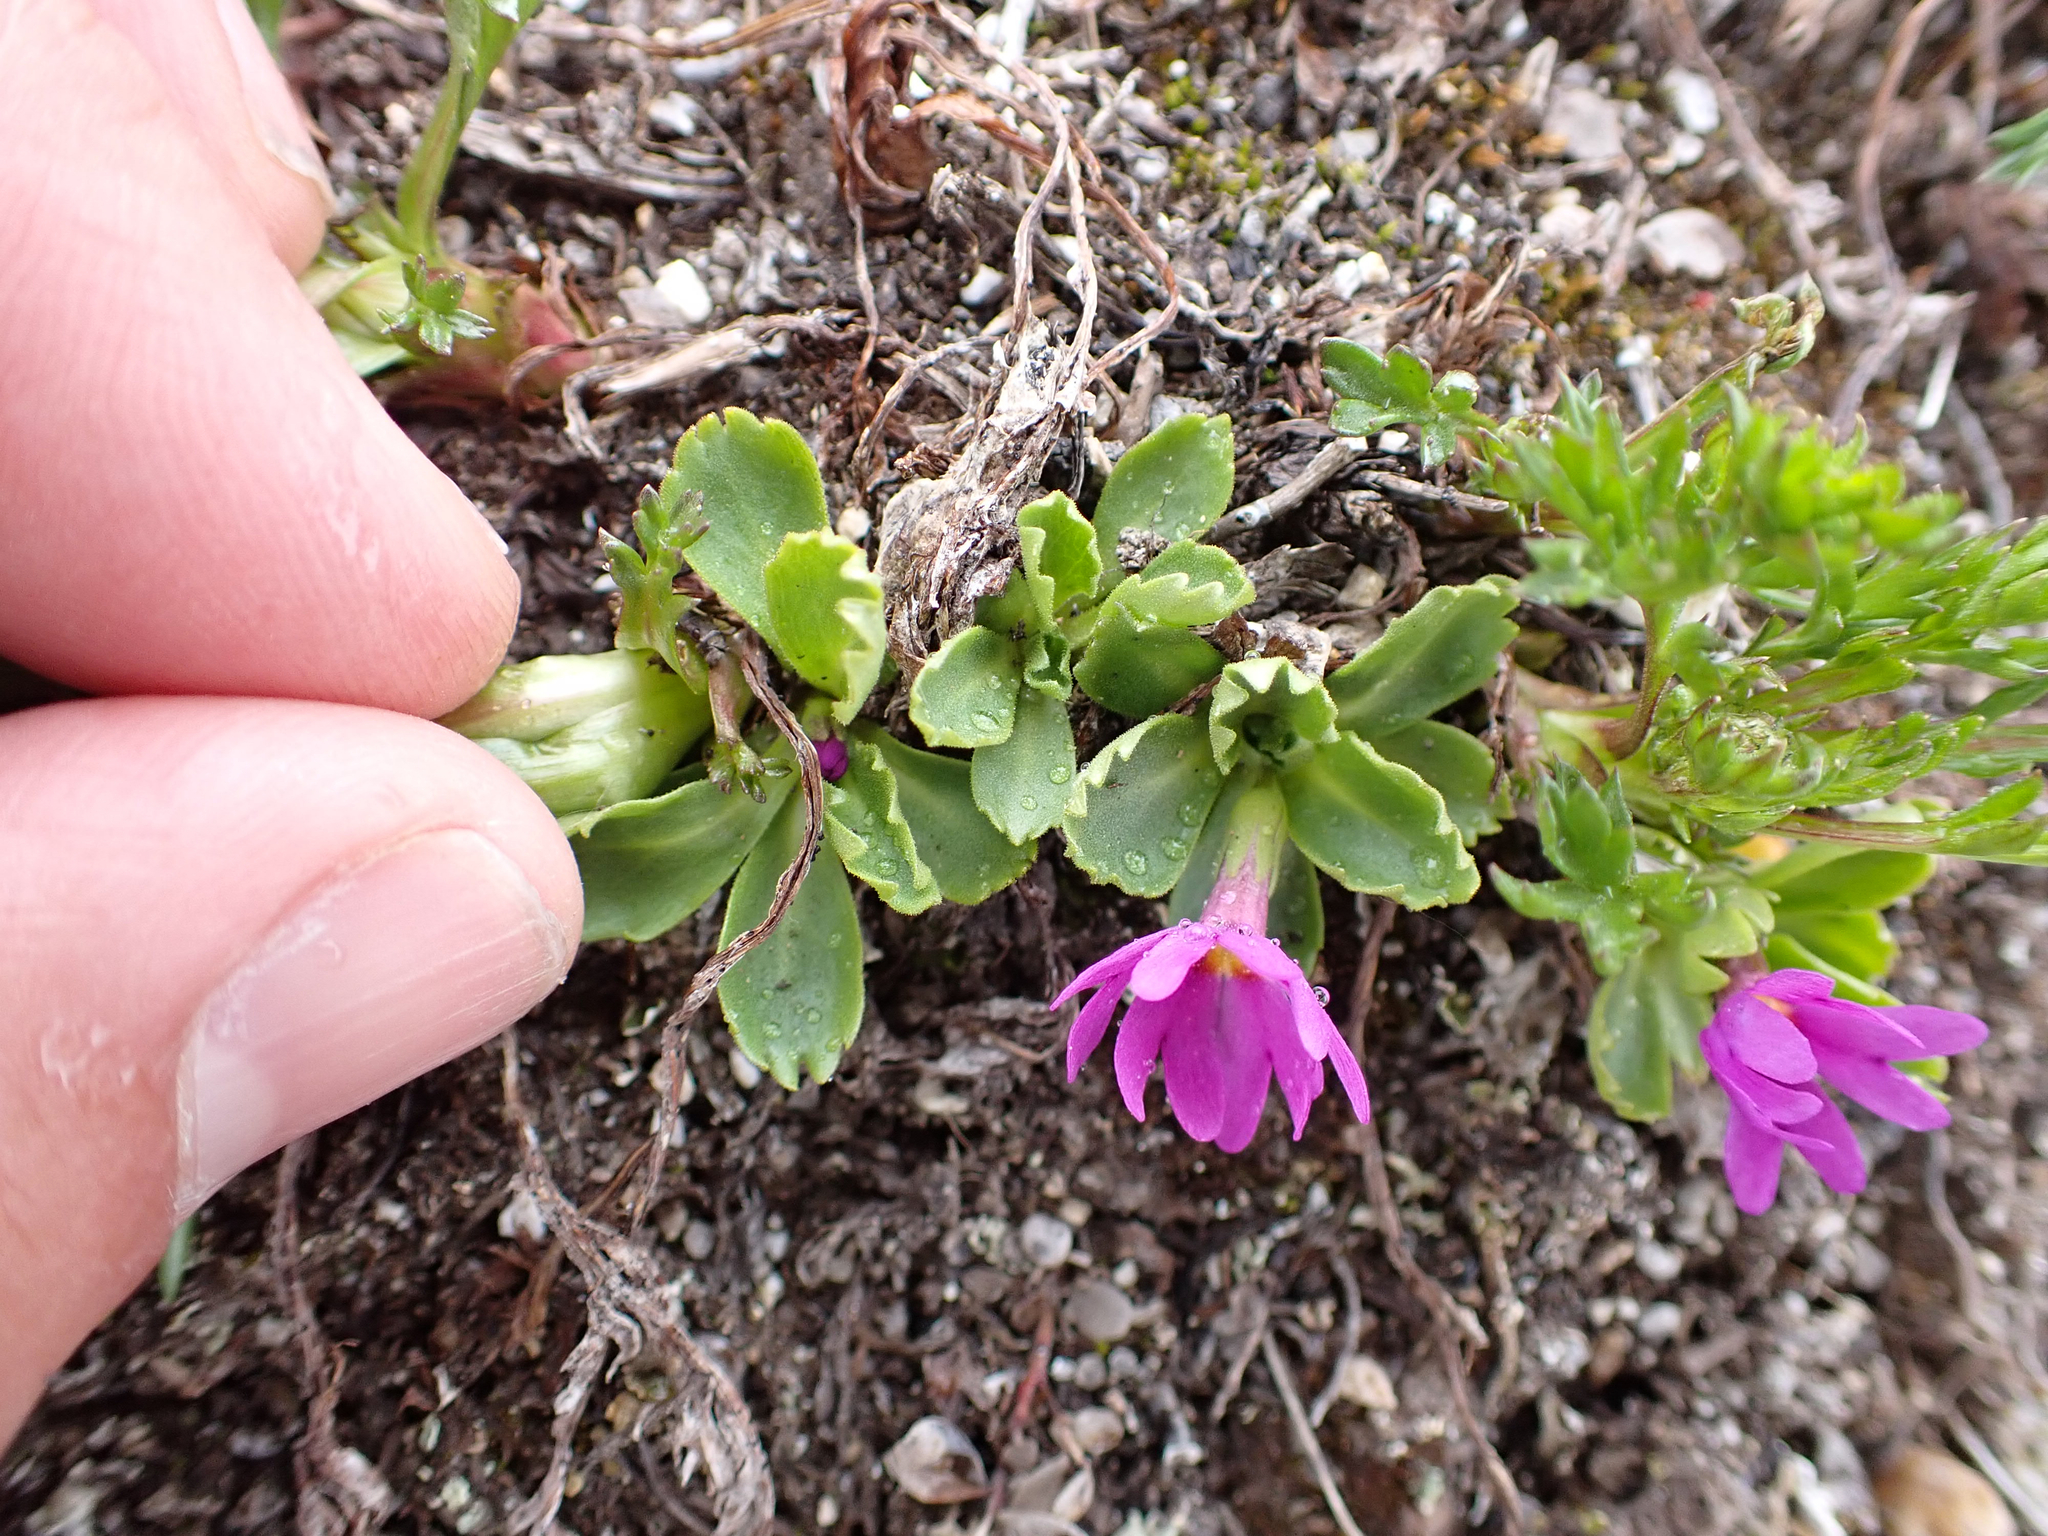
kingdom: Plantae
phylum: Tracheophyta
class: Magnoliopsida
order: Ericales
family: Primulaceae
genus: Primula
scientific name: Primula cuneifolia
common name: Wedge-leaved primrose
